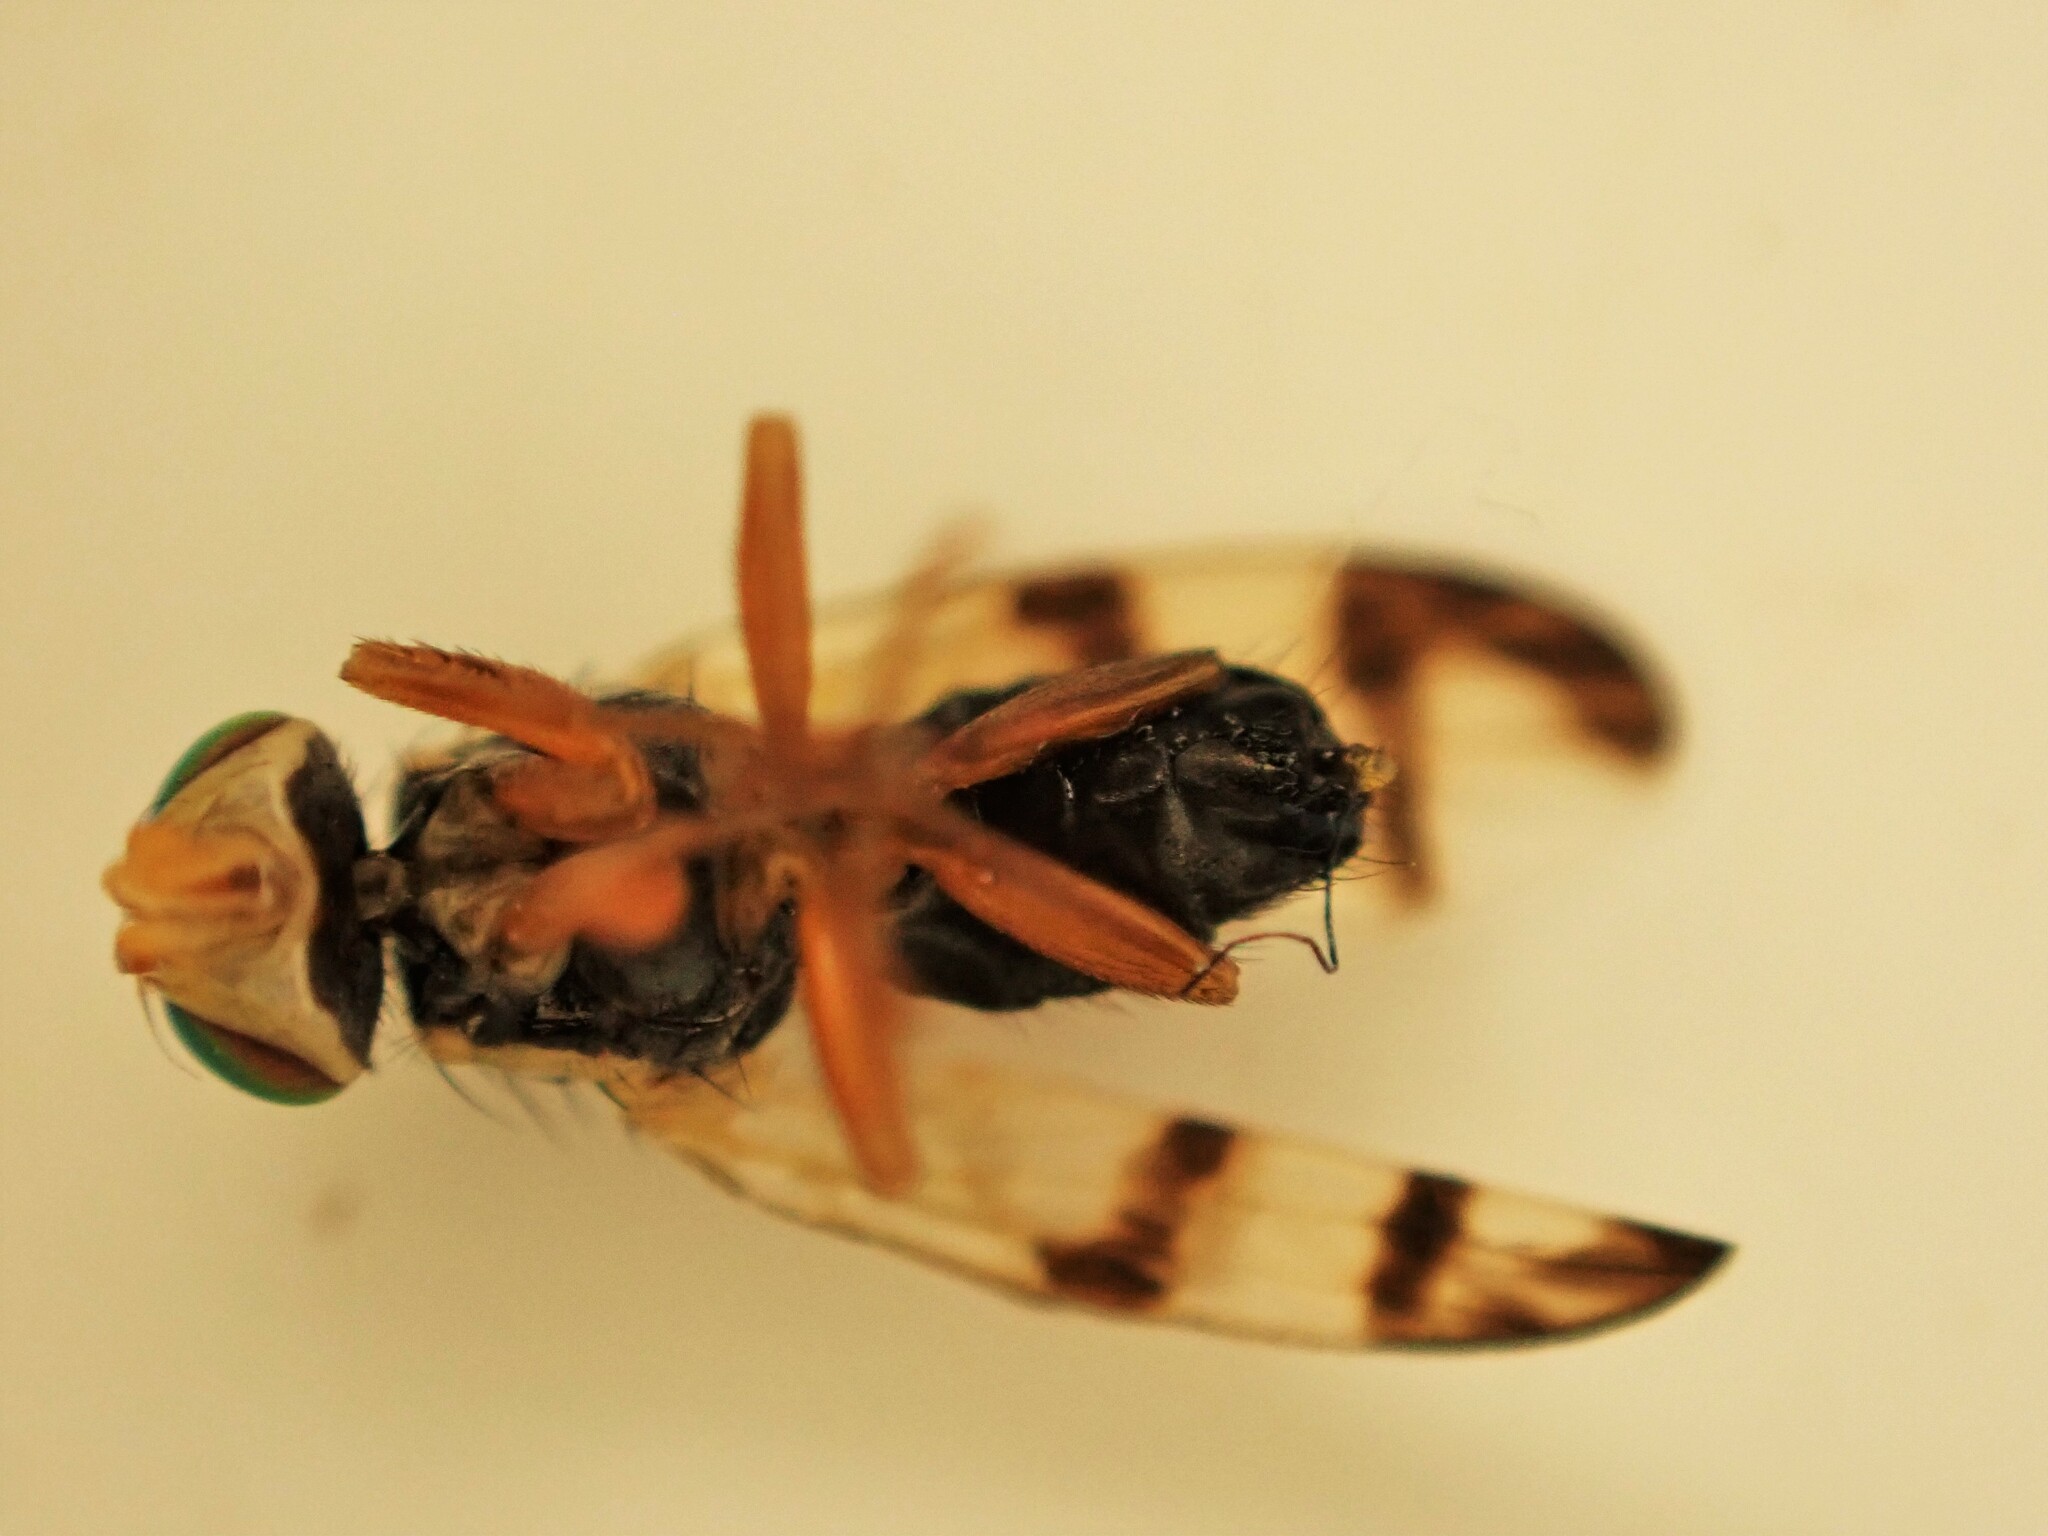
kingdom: Animalia
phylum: Arthropoda
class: Insecta
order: Diptera
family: Tephritidae
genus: Urophora
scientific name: Urophora stylata
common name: Fruit fly
